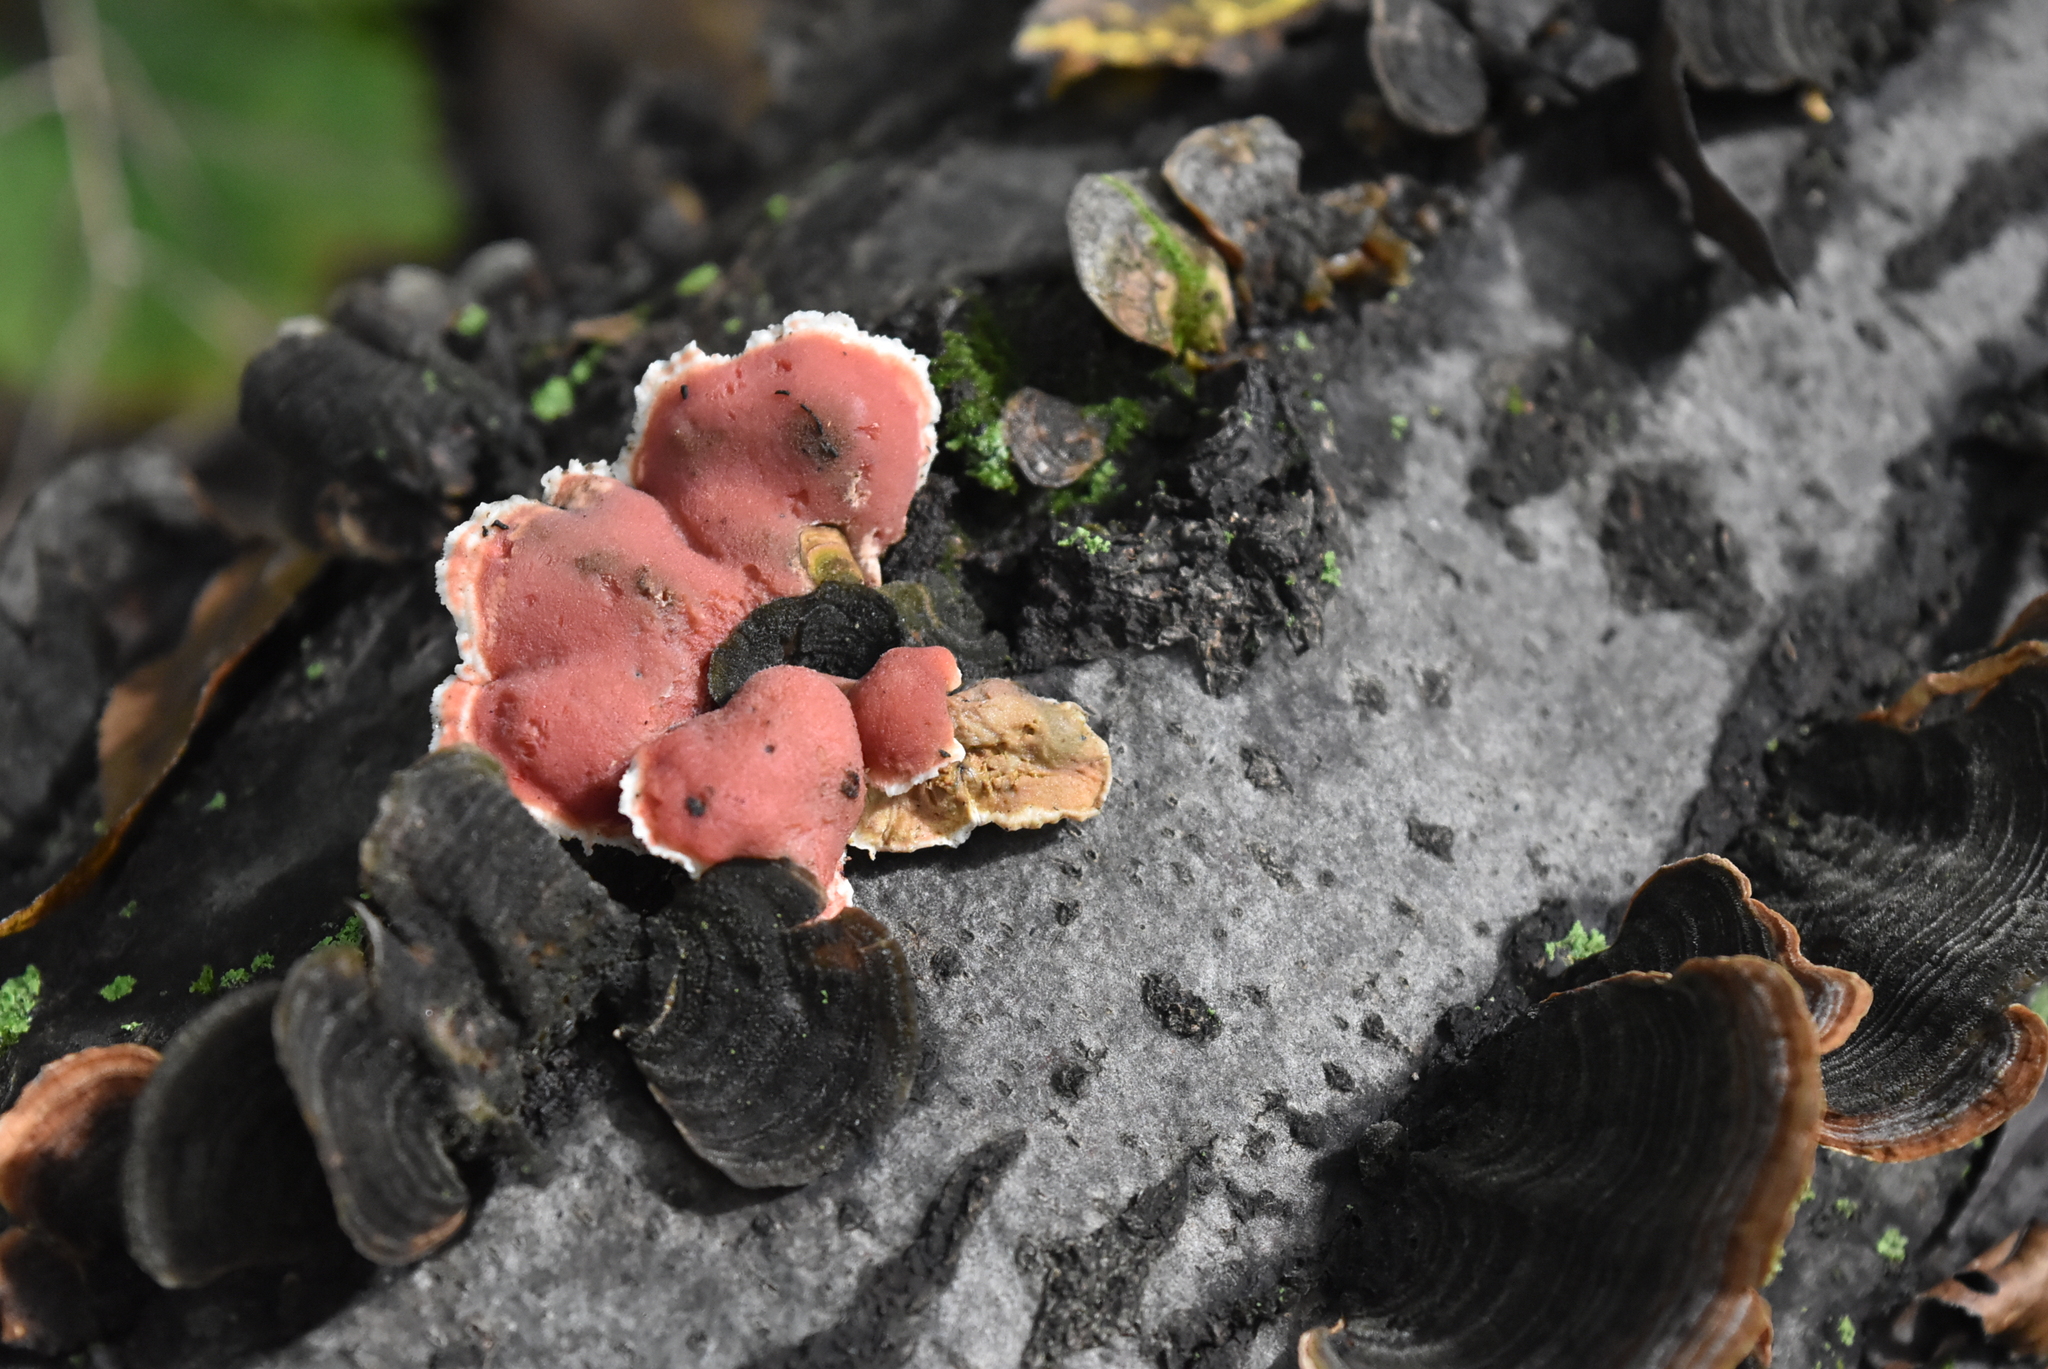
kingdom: Fungi
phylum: Basidiomycota
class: Agaricomycetes
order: Polyporales
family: Irpicaceae
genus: Byssomerulius
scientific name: Byssomerulius incarnatus
